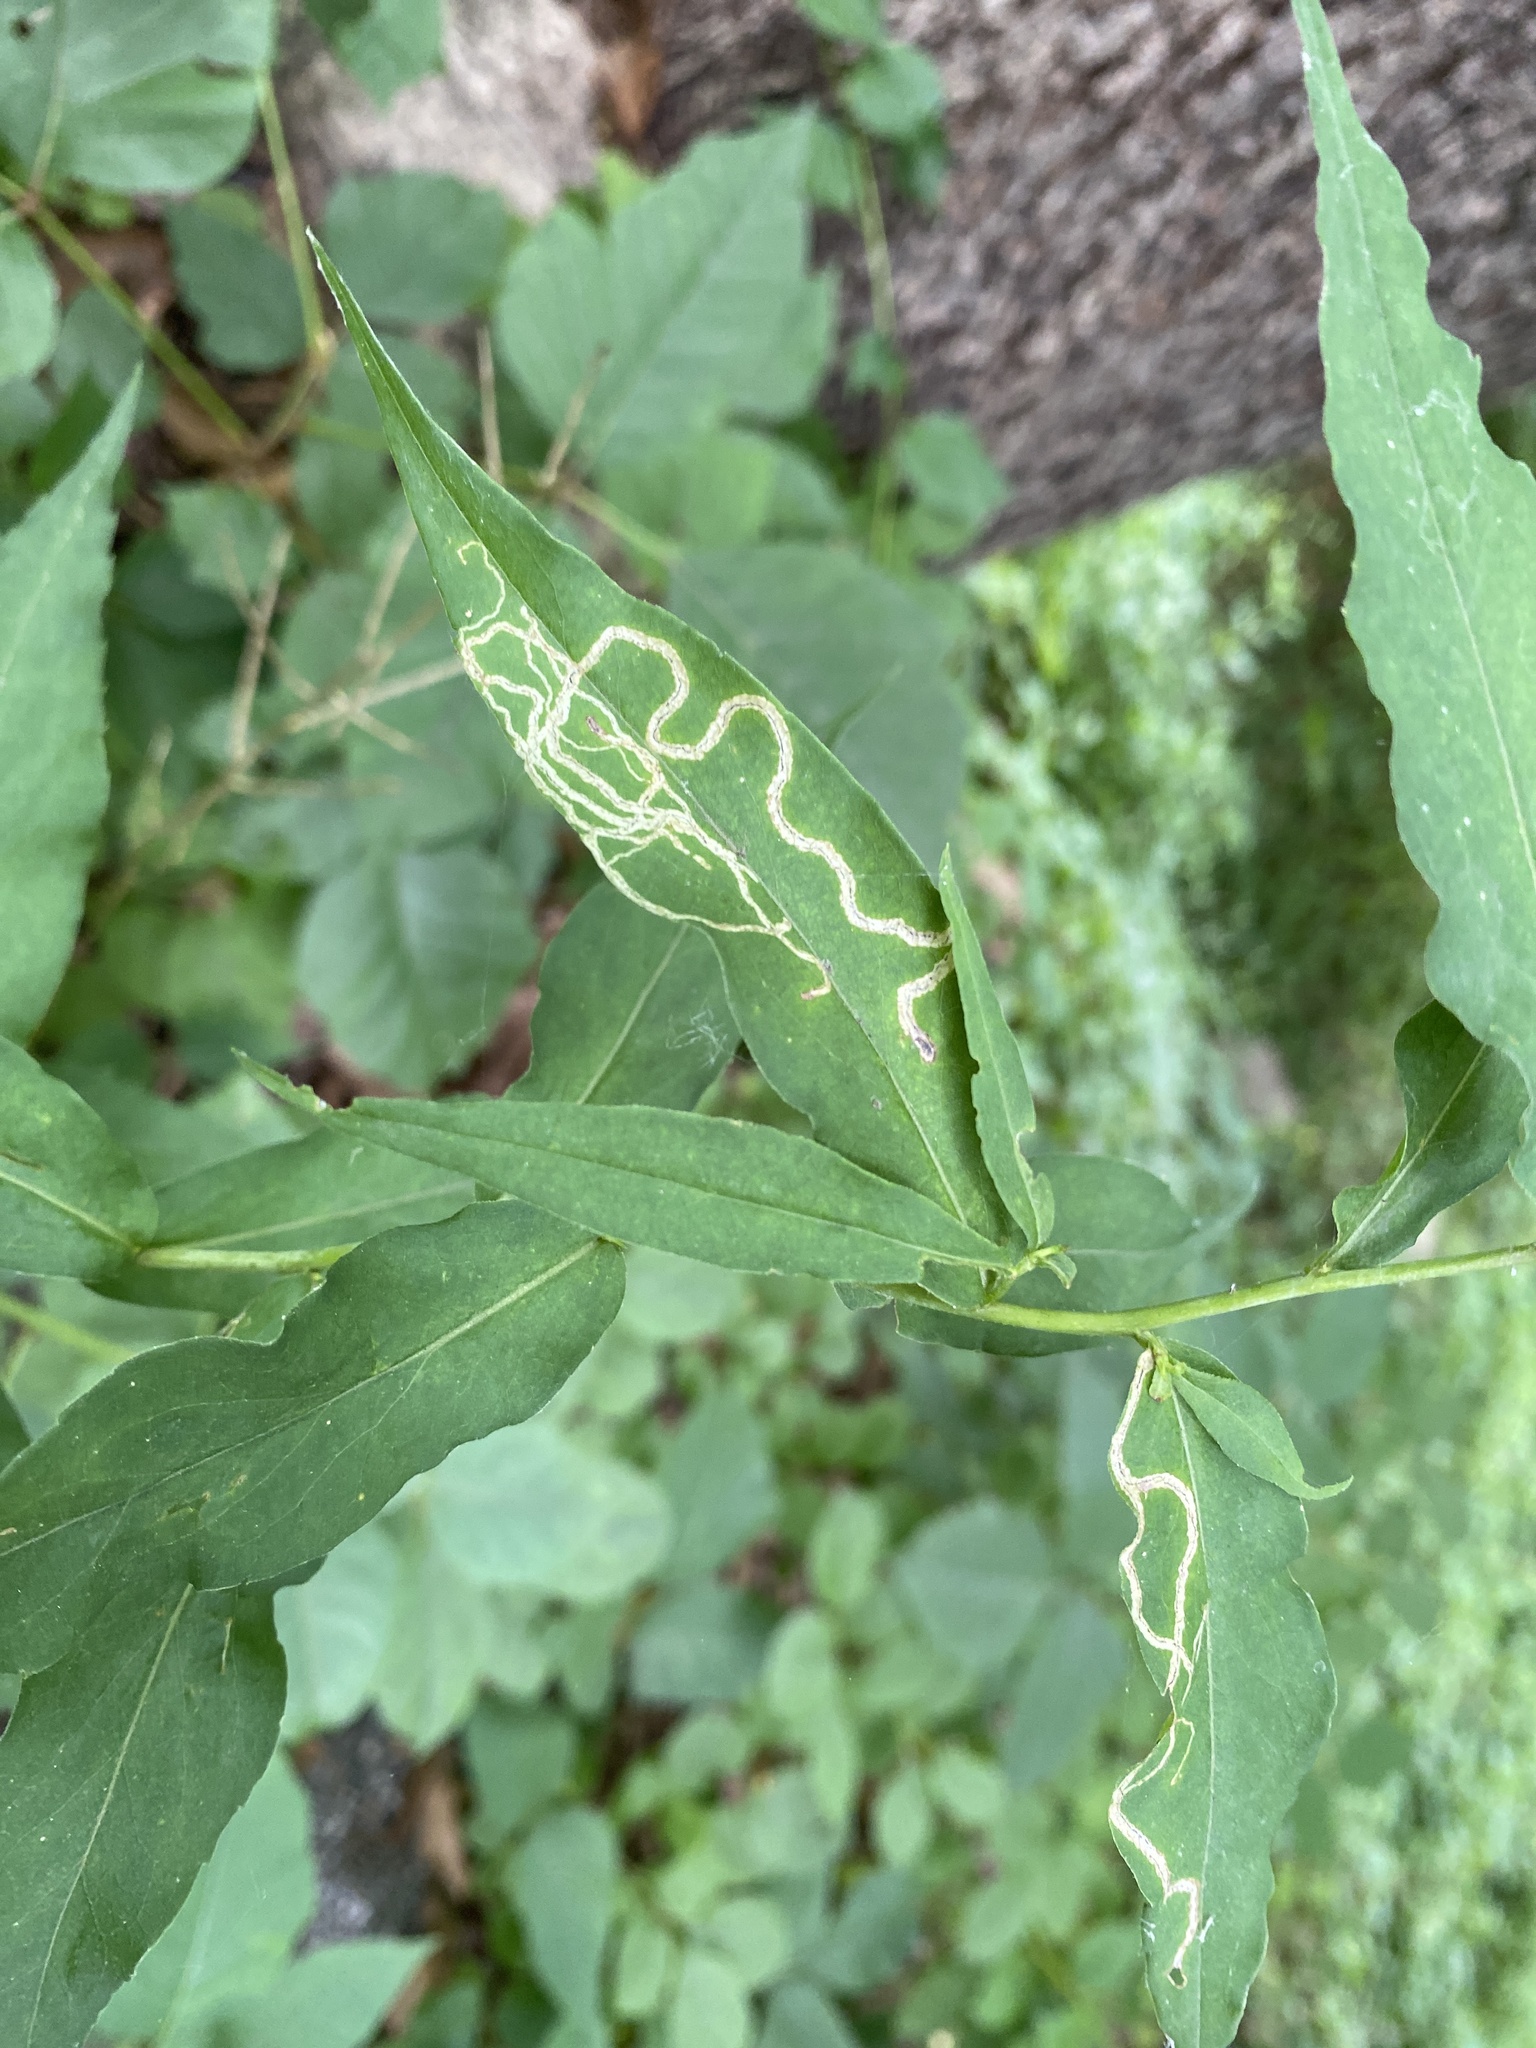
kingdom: Animalia
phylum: Arthropoda
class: Insecta
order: Diptera
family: Agromyzidae
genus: Liriomyza
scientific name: Liriomyza eupatorii
